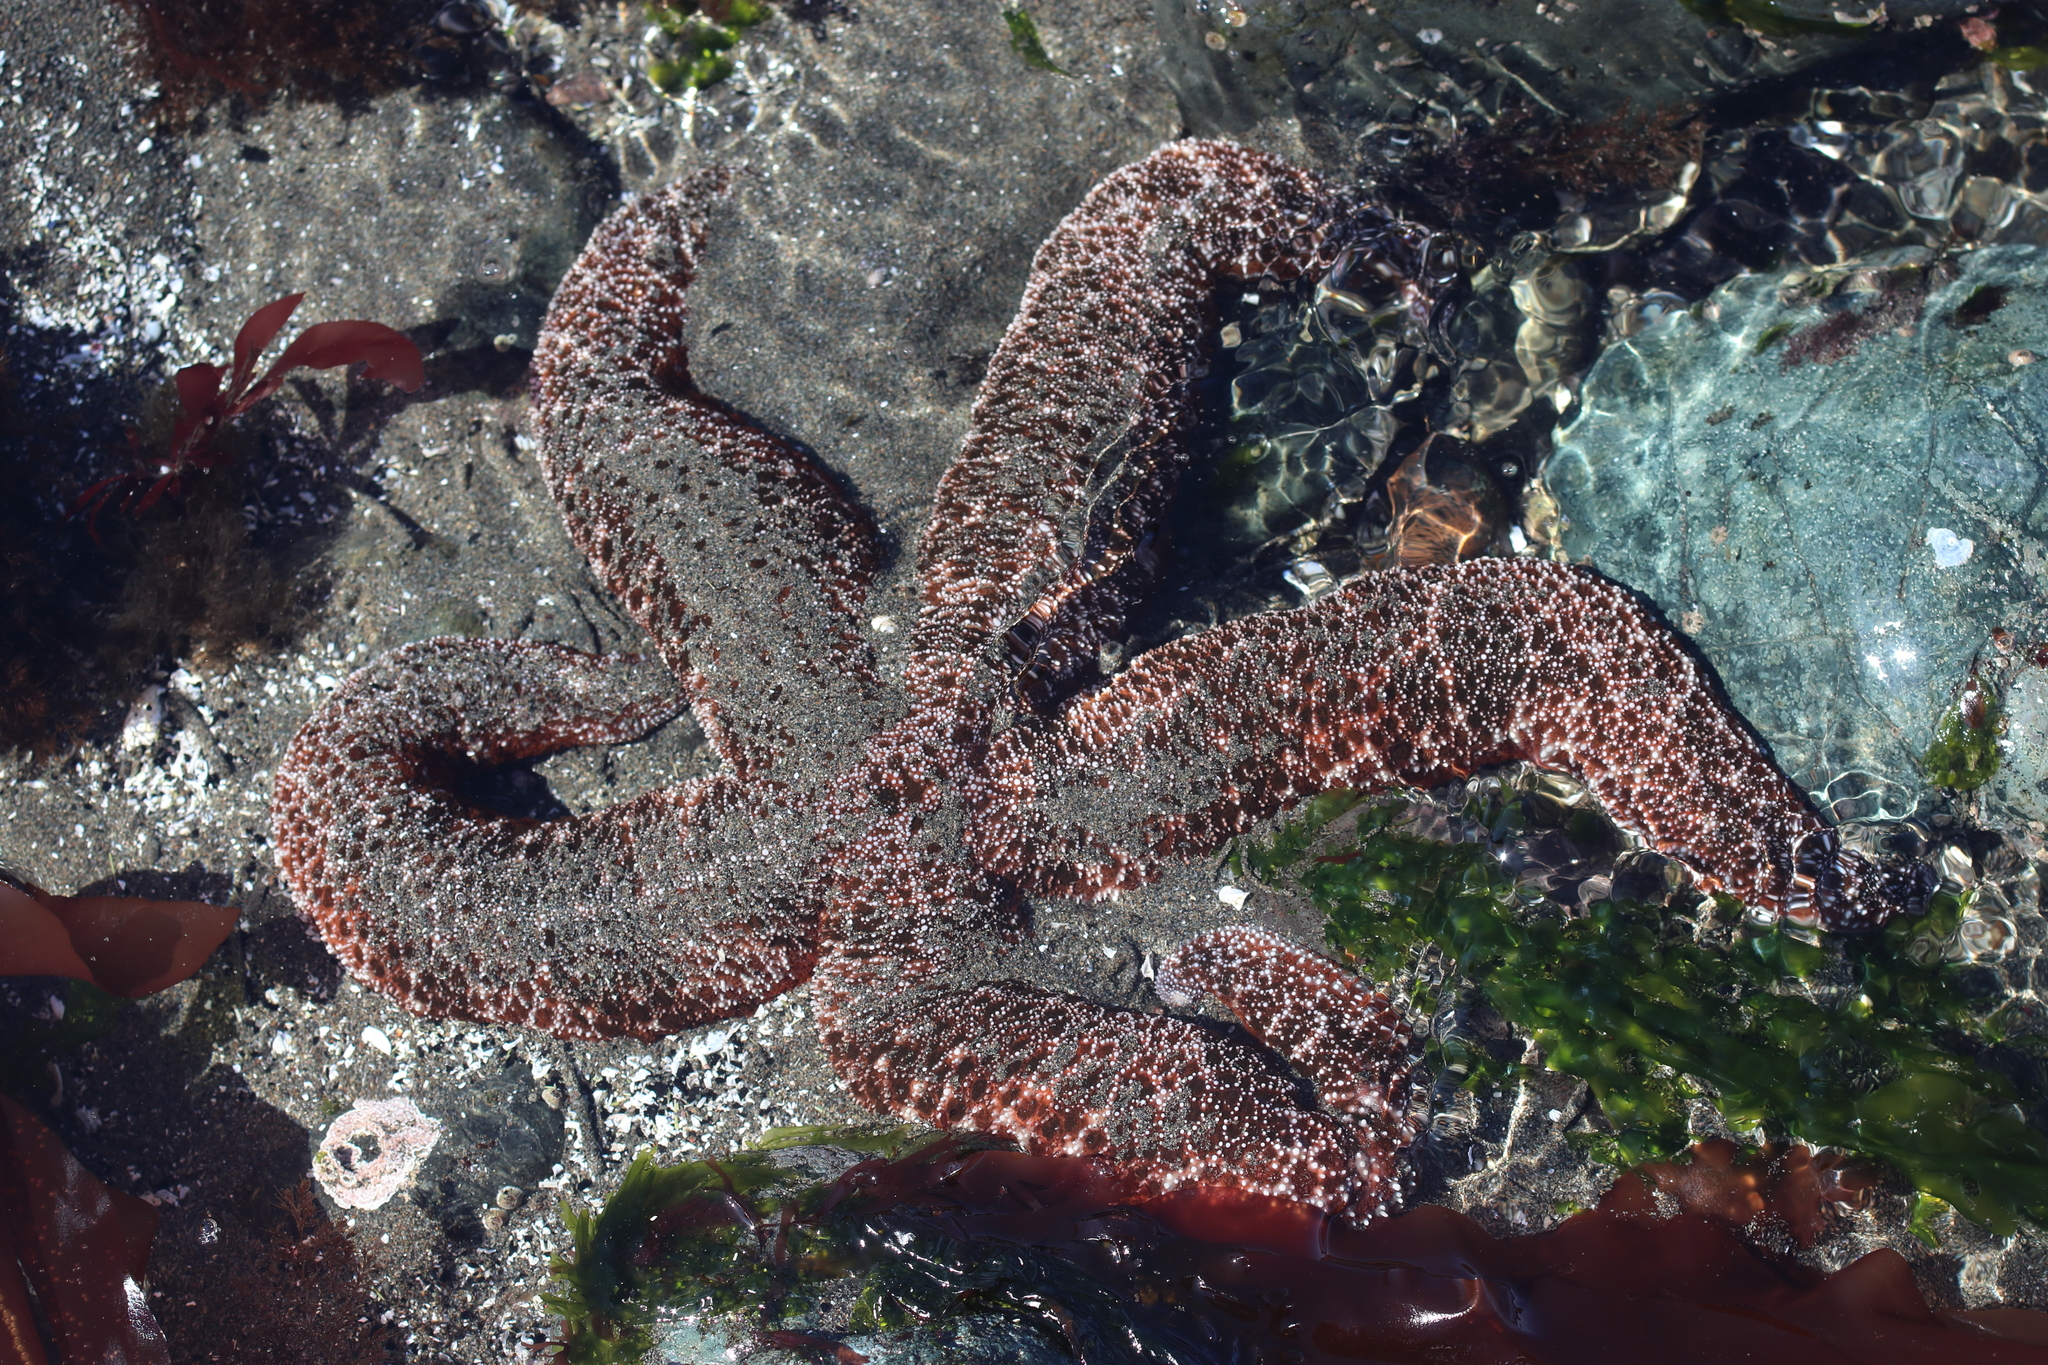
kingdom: Animalia
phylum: Echinodermata
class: Asteroidea
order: Forcipulatida
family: Asteriidae
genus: Evasterias
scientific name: Evasterias troschelii
